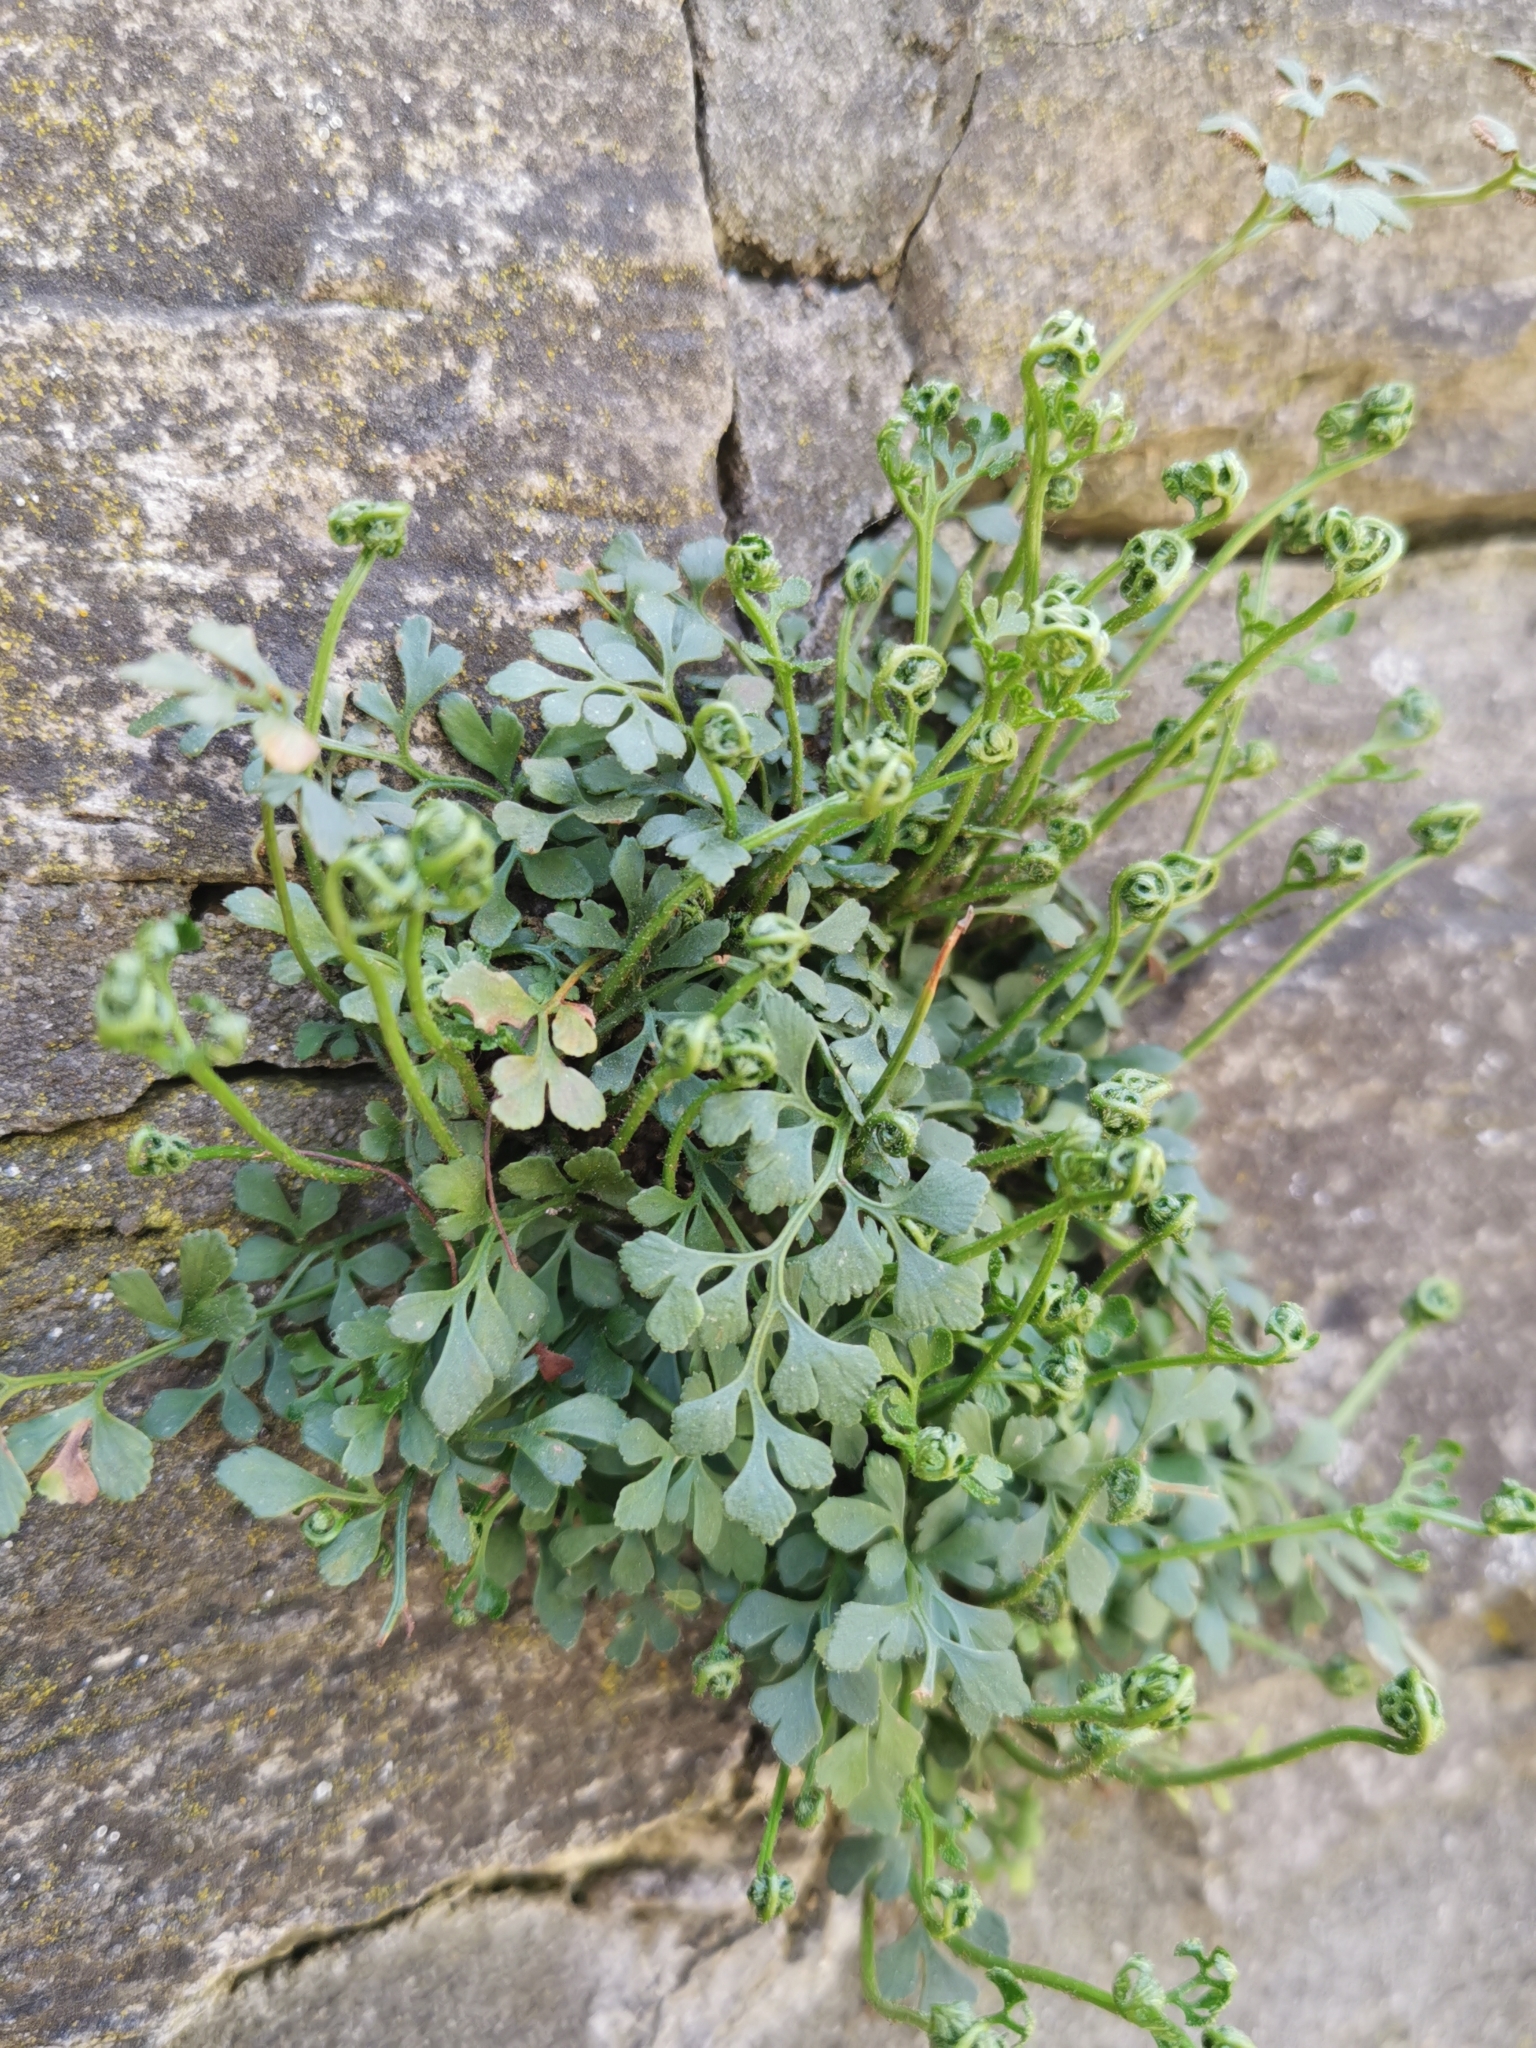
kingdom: Plantae
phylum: Tracheophyta
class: Polypodiopsida
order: Polypodiales
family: Aspleniaceae
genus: Asplenium
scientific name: Asplenium ruta-muraria
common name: Wall-rue
